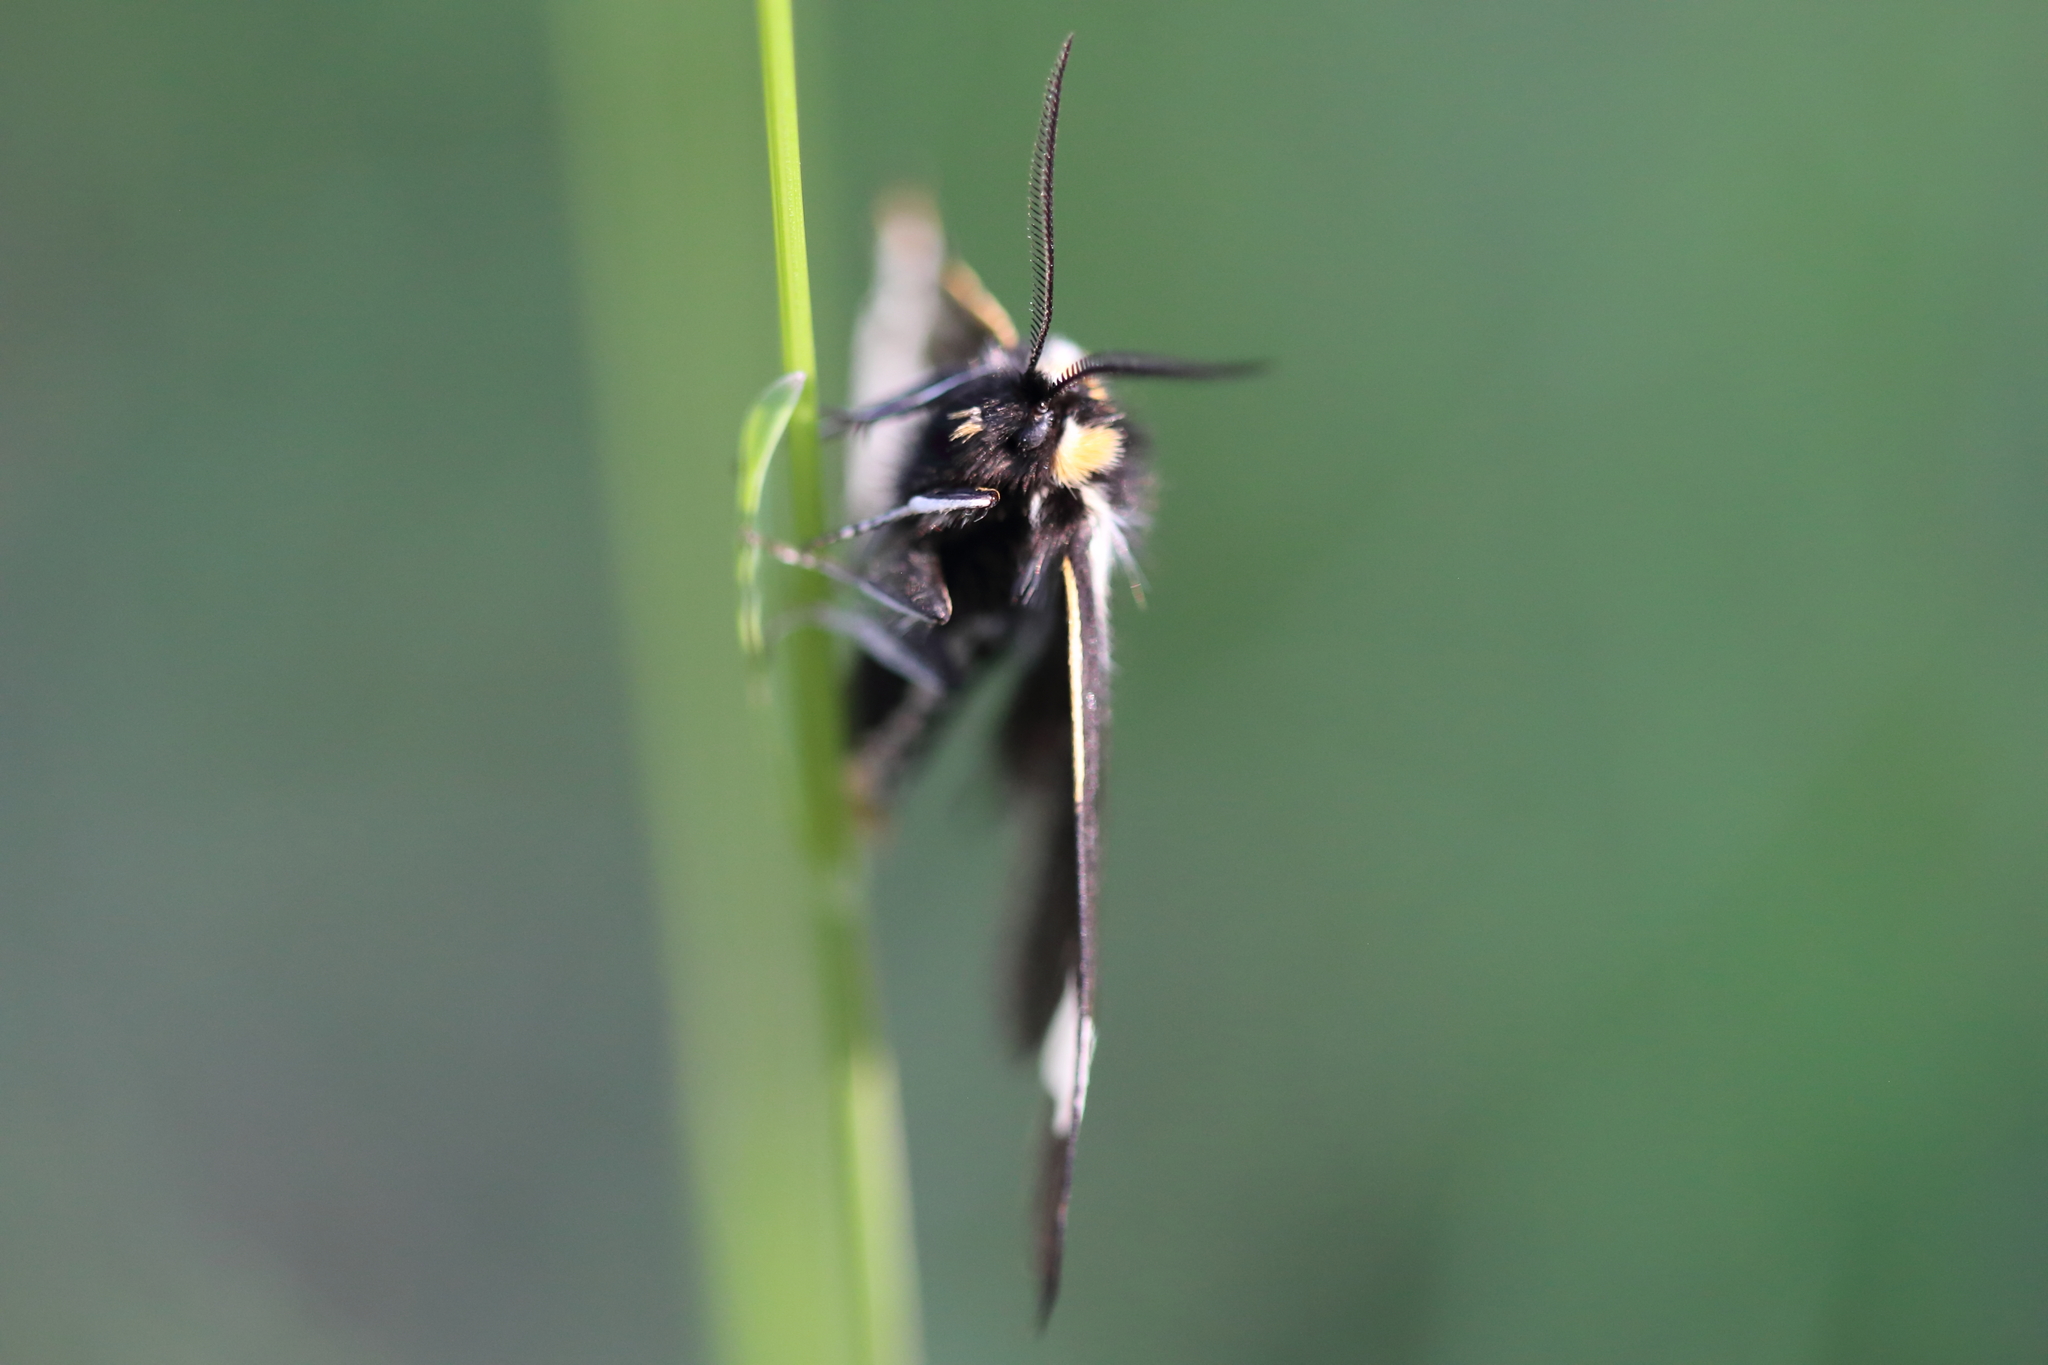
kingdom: Animalia
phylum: Arthropoda
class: Insecta
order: Lepidoptera
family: Erebidae
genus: Parasemia
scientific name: Parasemia plantaginis
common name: Wood tiger
